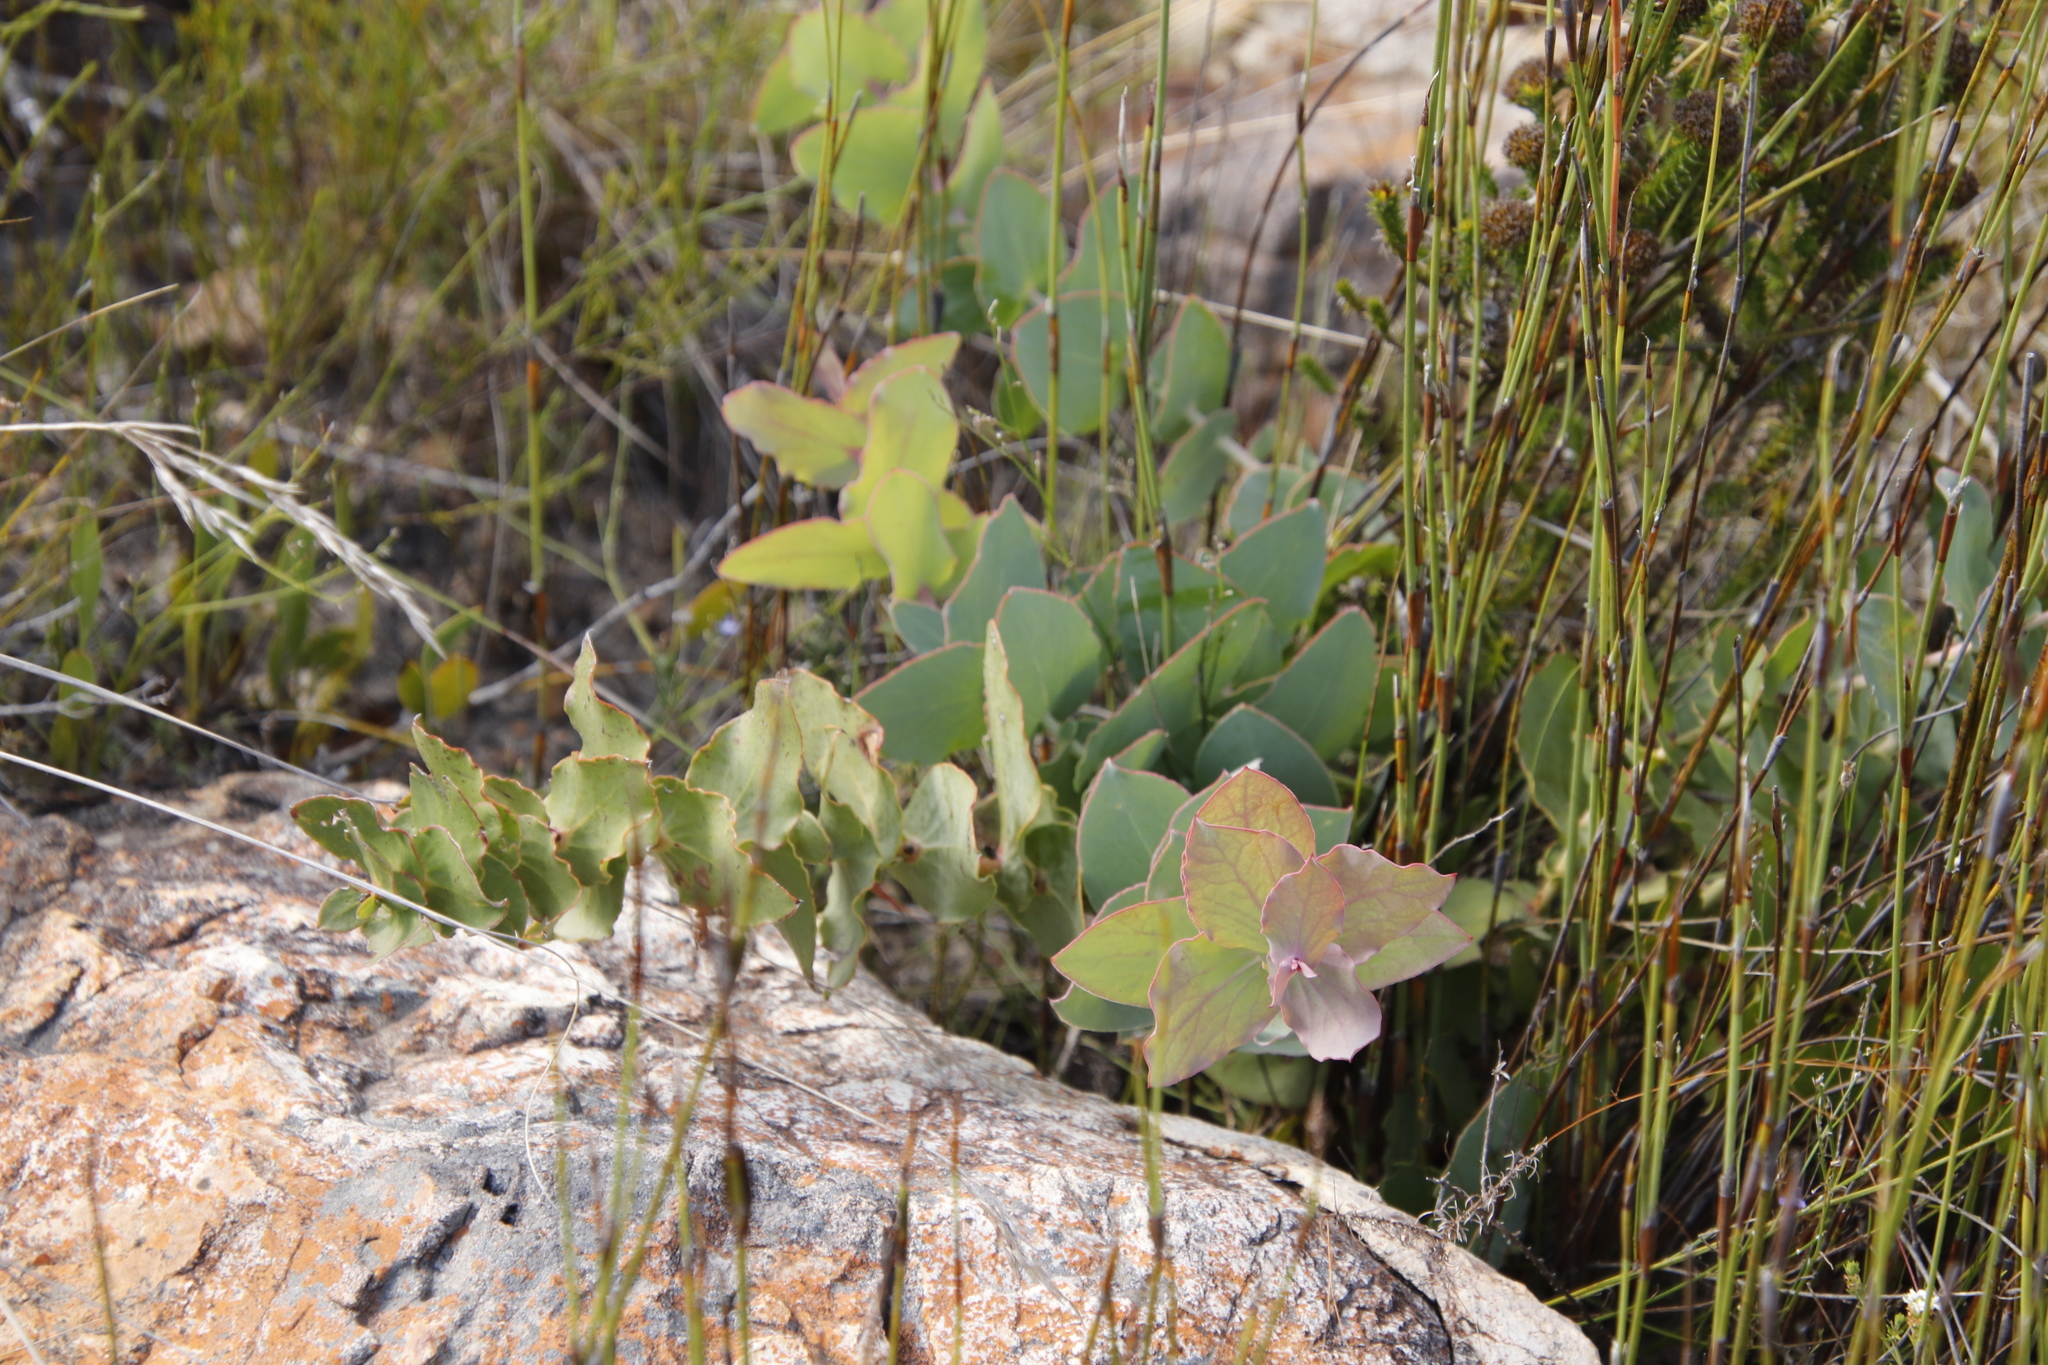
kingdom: Plantae
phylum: Tracheophyta
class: Magnoliopsida
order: Proteales
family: Proteaceae
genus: Protea
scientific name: Protea amplexicaulis
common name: Clasping-leaf sugarbush
